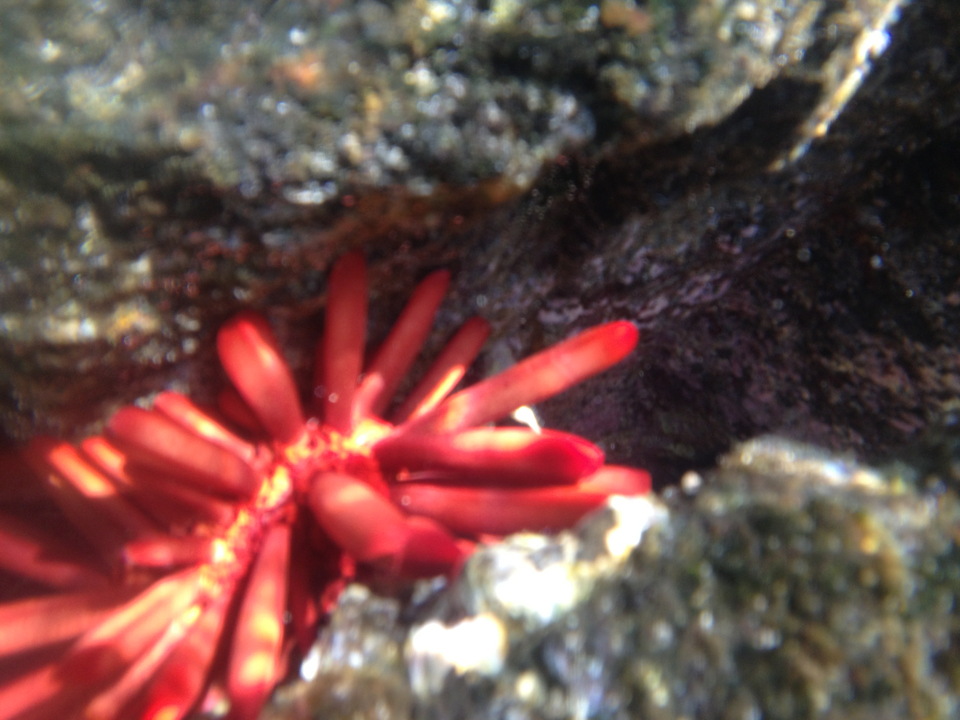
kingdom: Animalia
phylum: Echinodermata
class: Echinoidea
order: Camarodonta
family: Echinometridae
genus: Heterocentrotus
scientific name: Heterocentrotus mamillatus
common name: Slate pencil urchin
